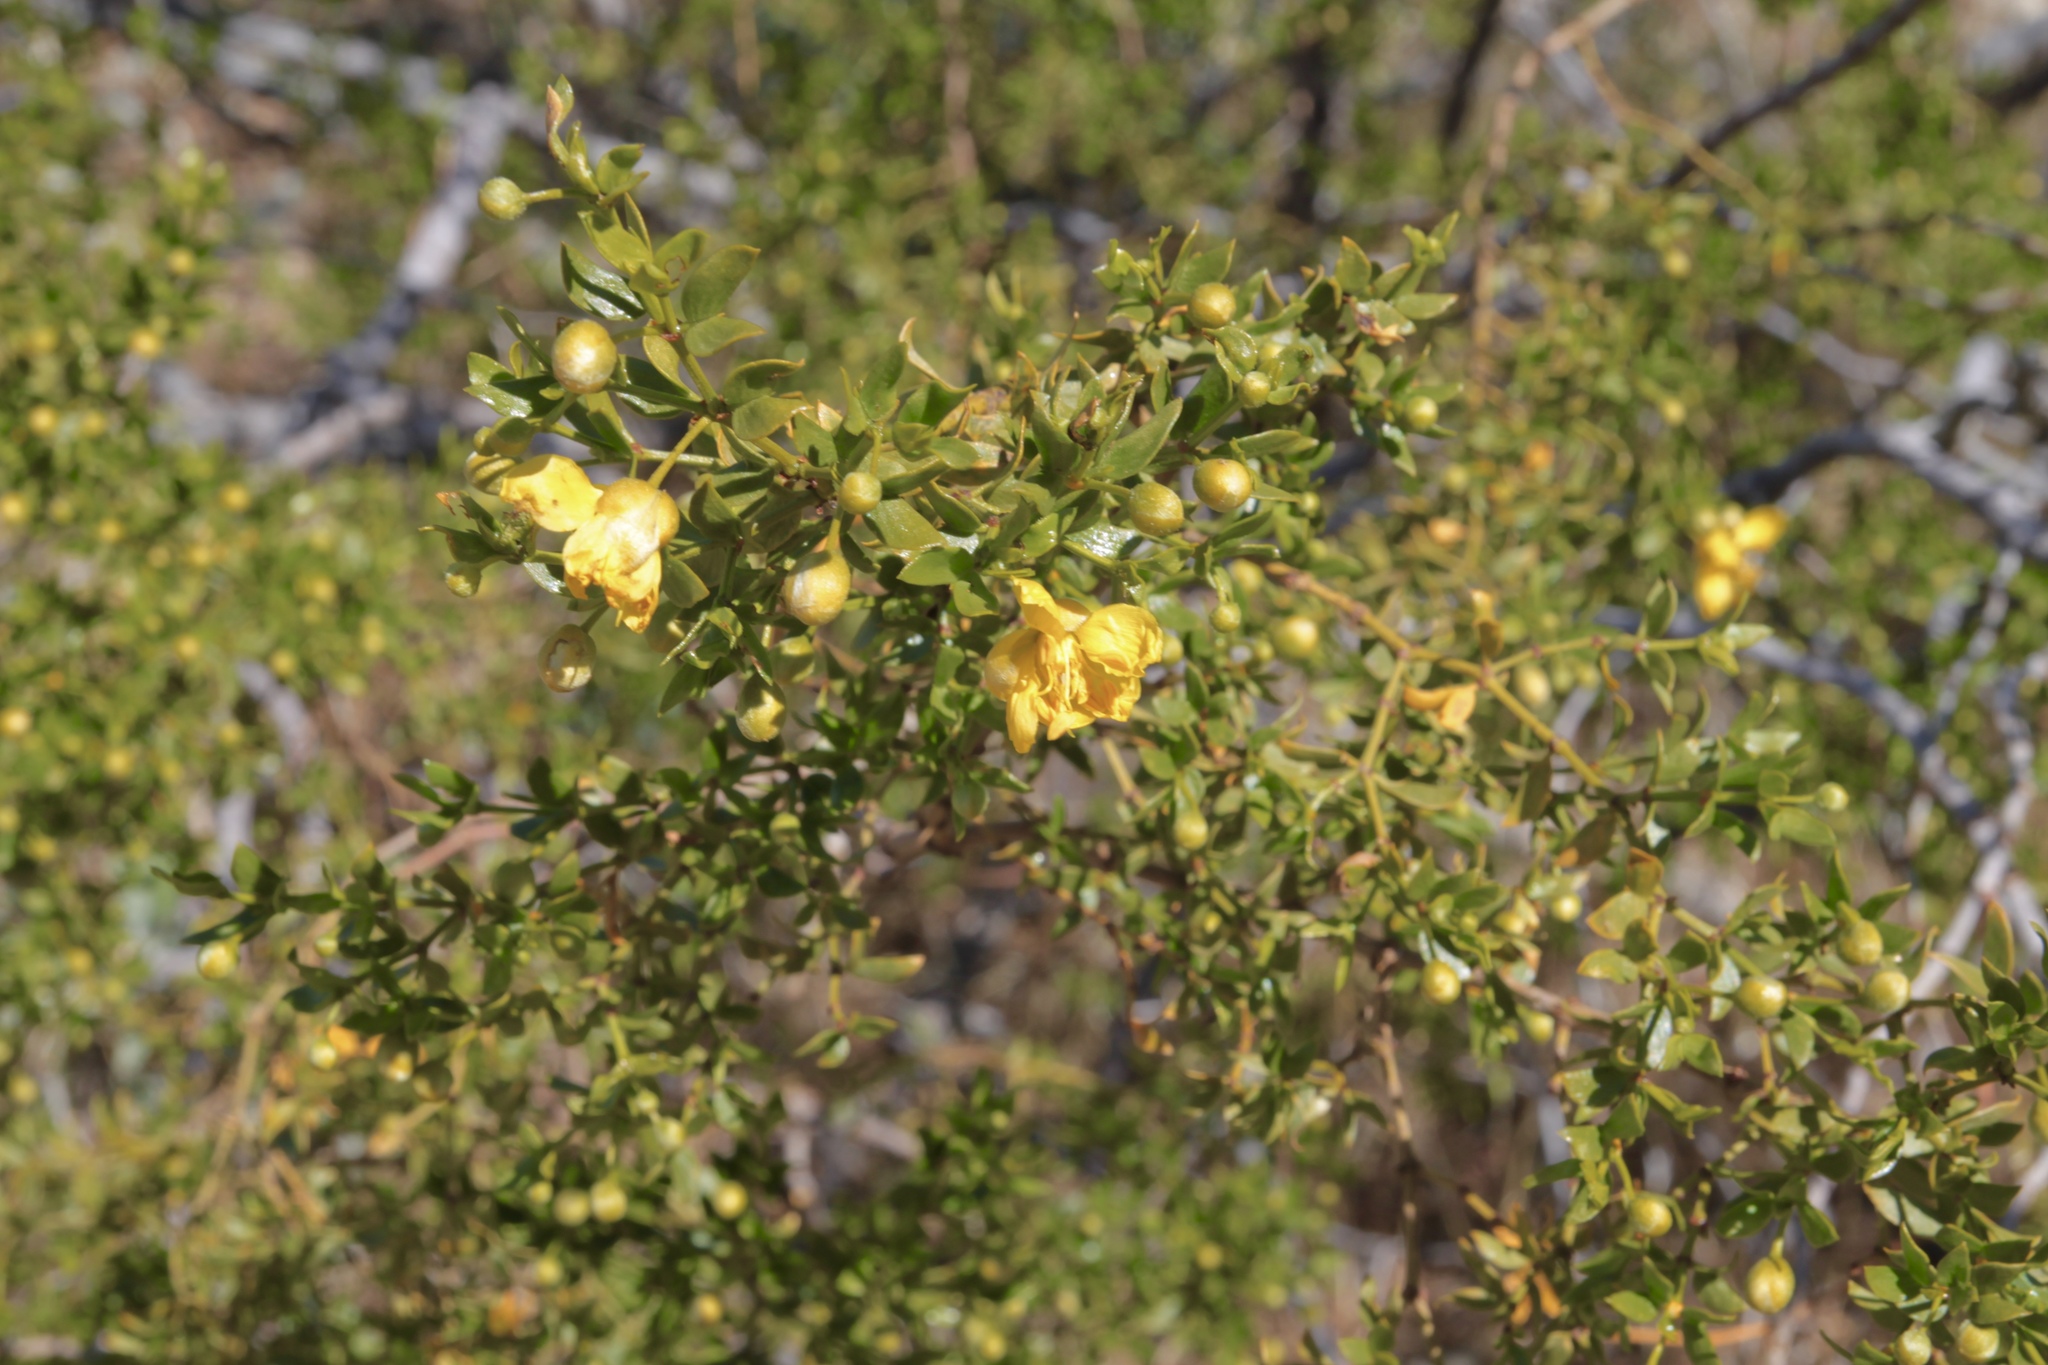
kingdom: Plantae
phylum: Tracheophyta
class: Magnoliopsida
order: Zygophyllales
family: Zygophyllaceae
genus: Larrea
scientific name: Larrea tridentata
